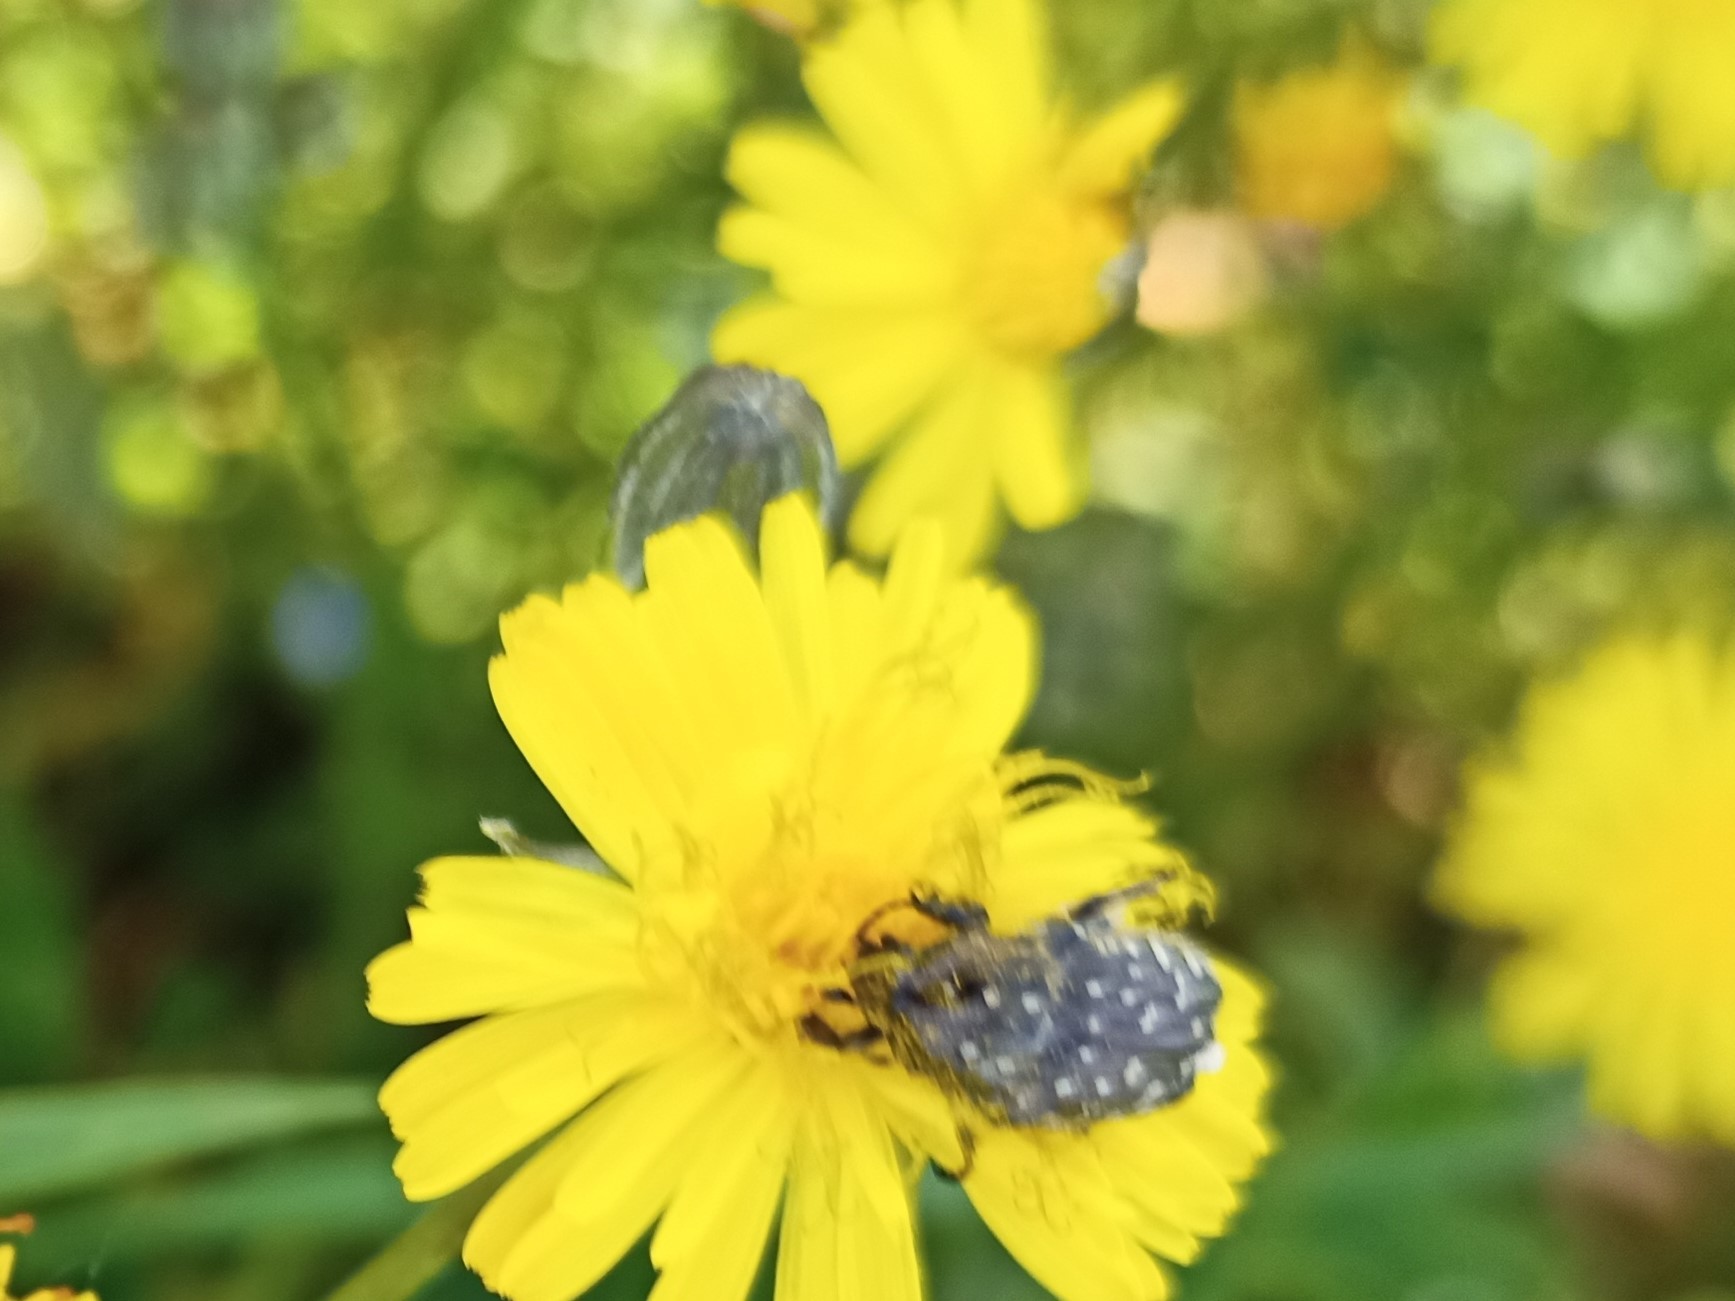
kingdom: Animalia
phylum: Arthropoda
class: Insecta
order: Coleoptera
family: Scarabaeidae
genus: Oxythyrea
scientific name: Oxythyrea funesta
